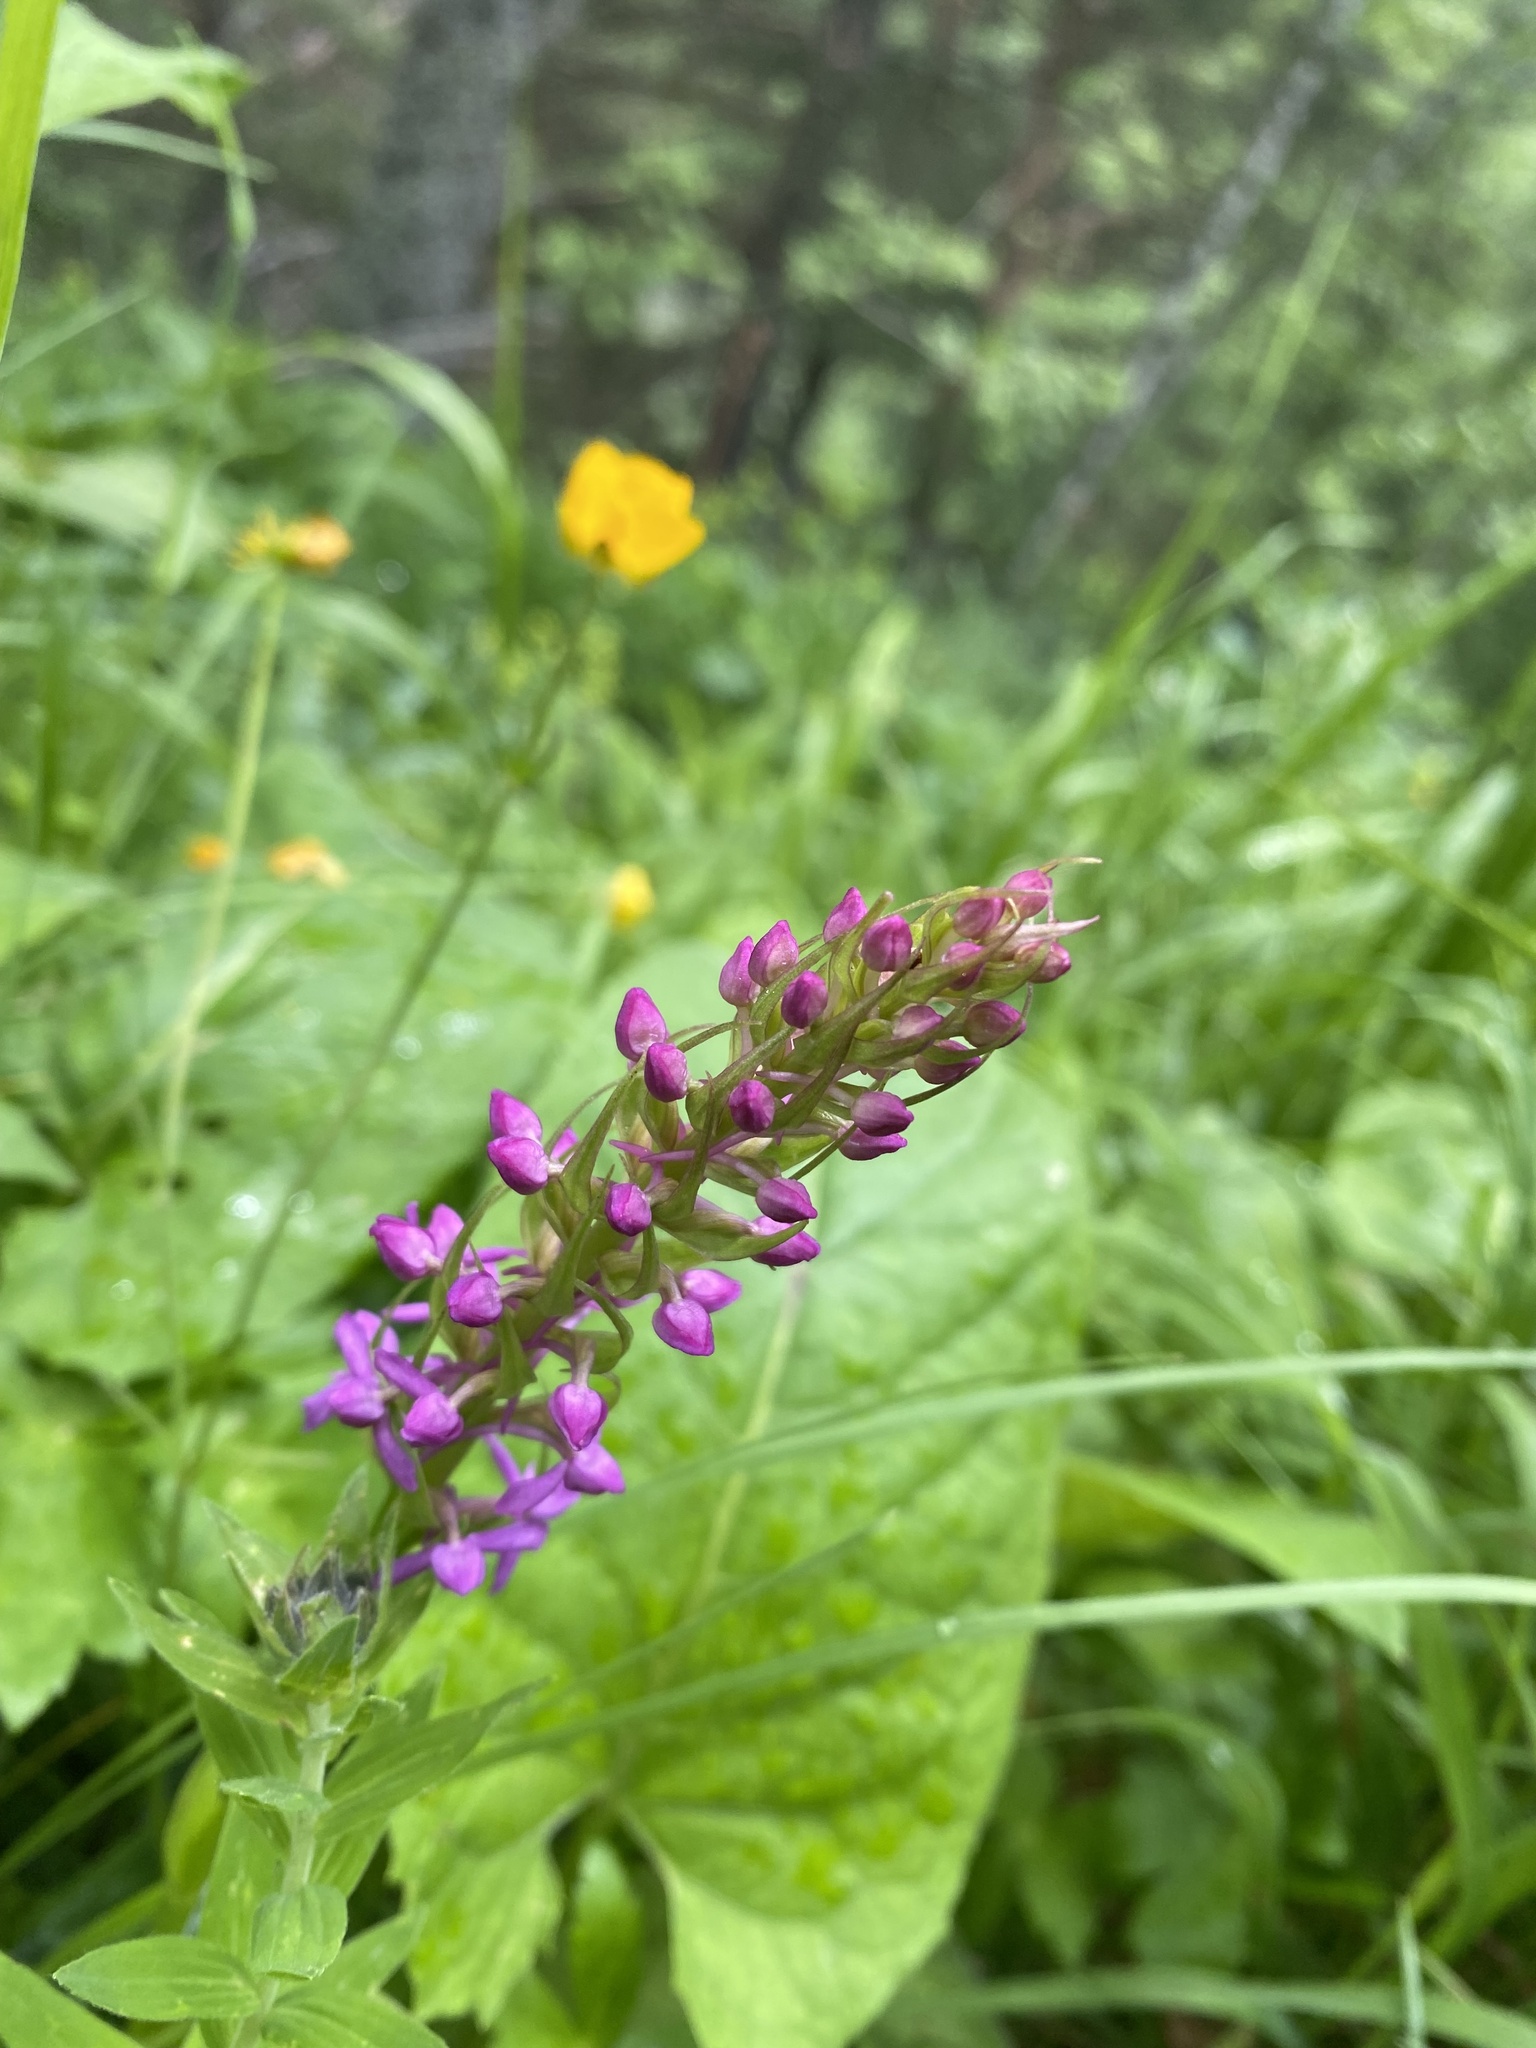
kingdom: Plantae
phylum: Tracheophyta
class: Liliopsida
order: Asparagales
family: Orchidaceae
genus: Gymnadenia
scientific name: Gymnadenia conopsea
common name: Fragrant orchid
